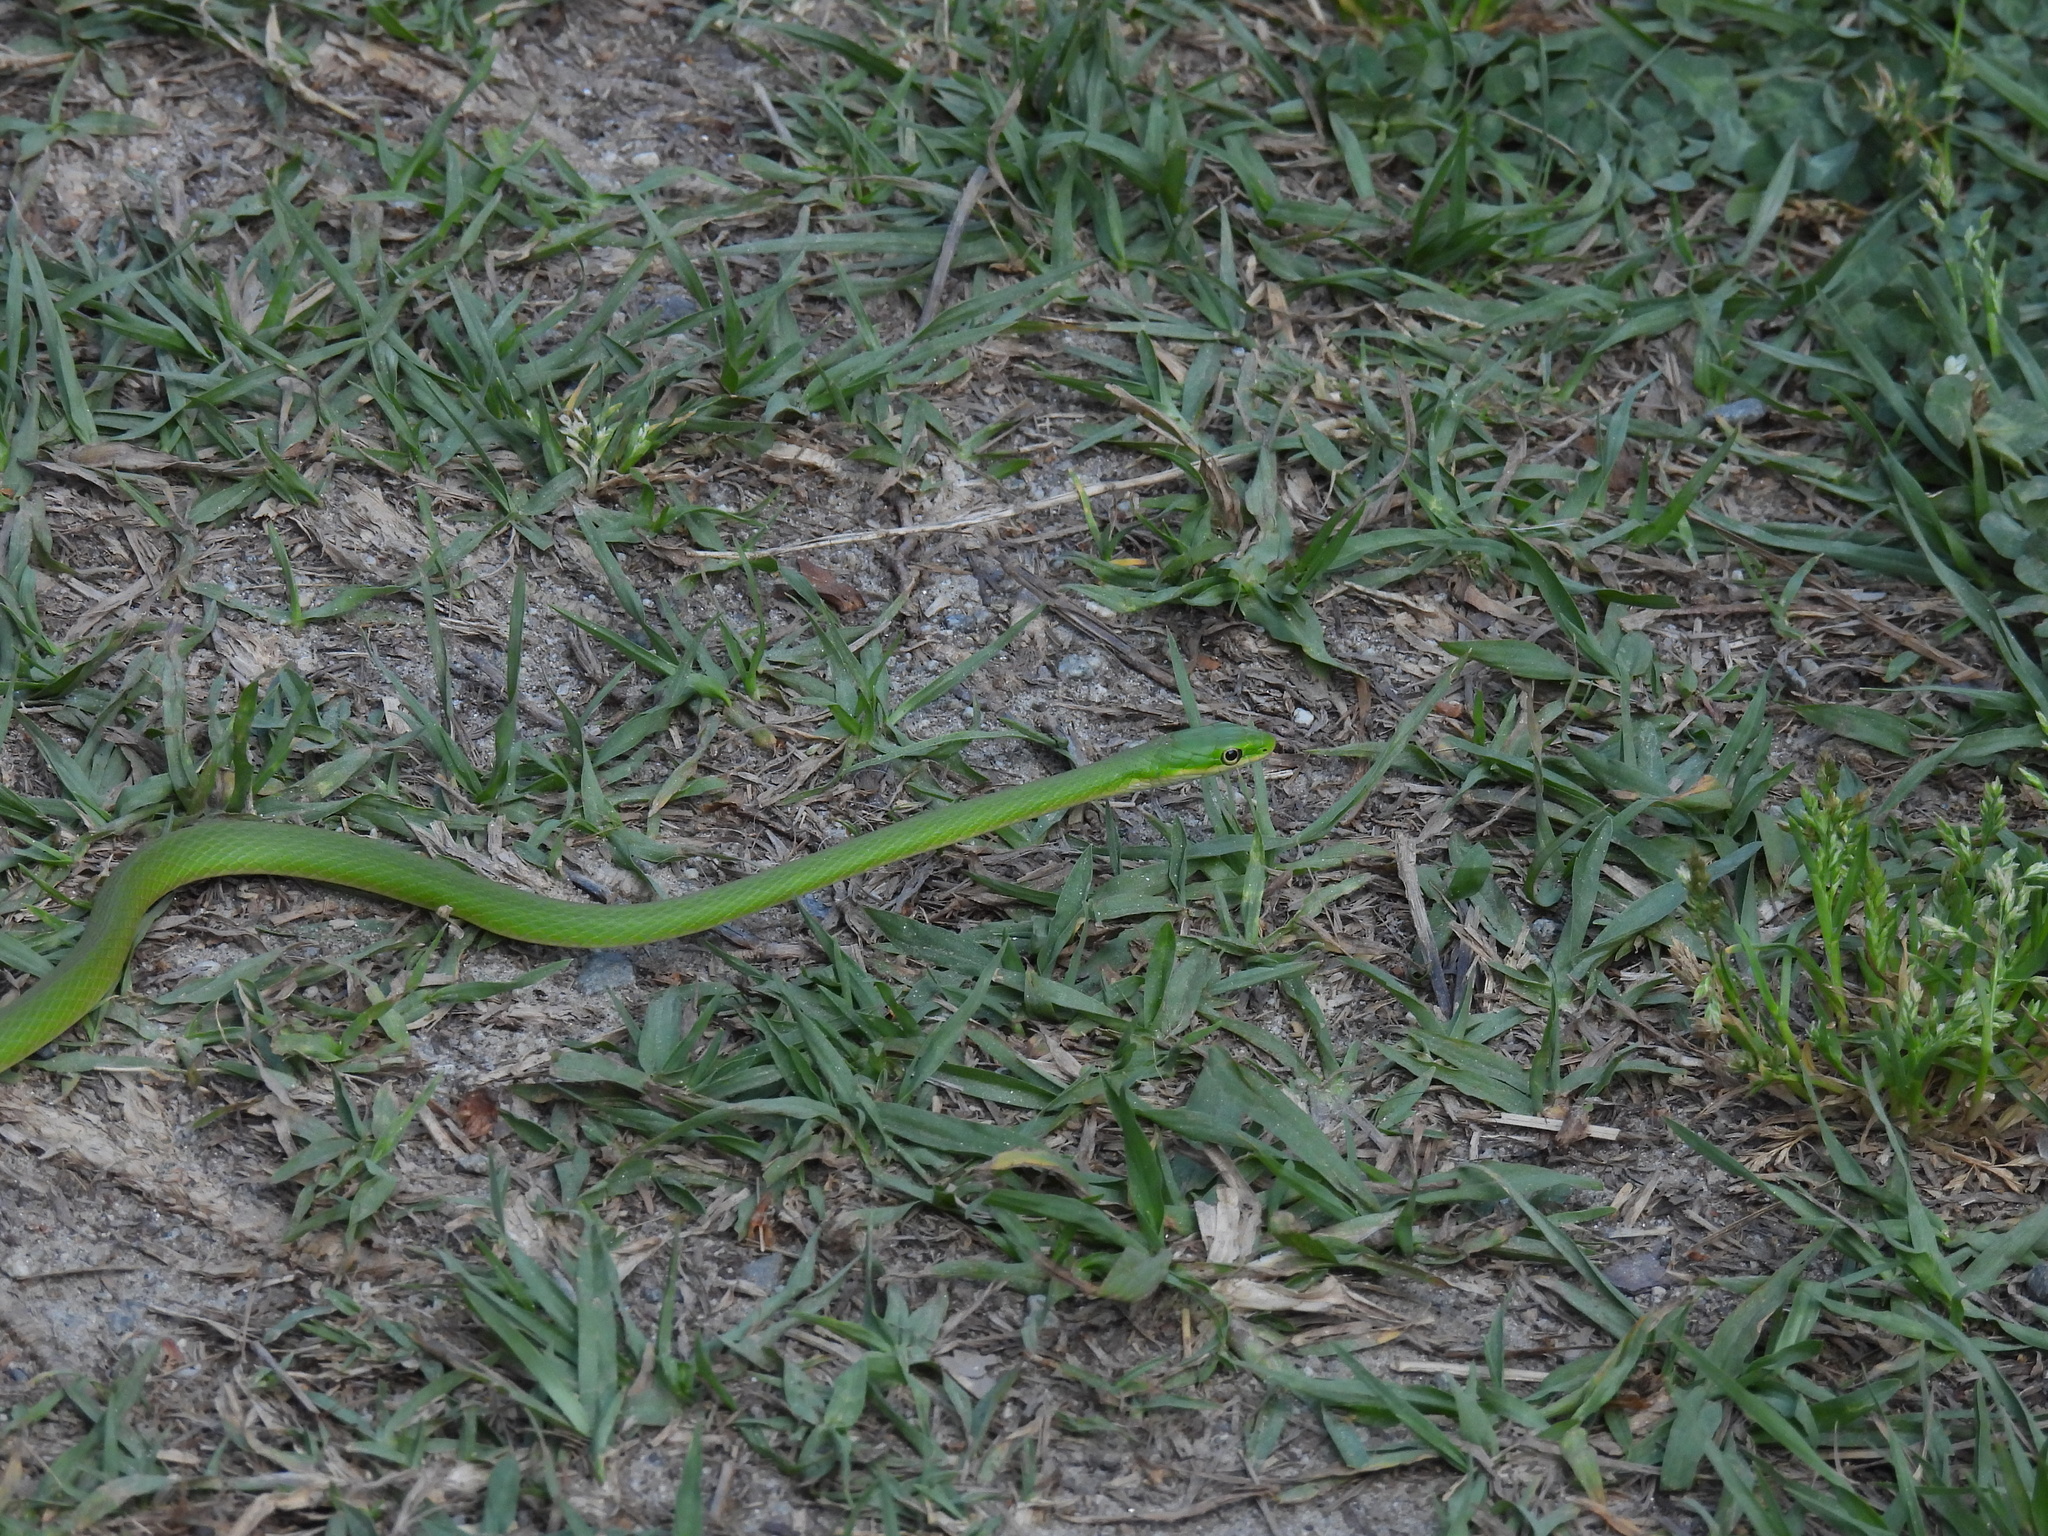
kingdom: Animalia
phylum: Chordata
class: Squamata
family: Colubridae
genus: Opheodrys
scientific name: Opheodrys aestivus
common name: Rough greensnake
